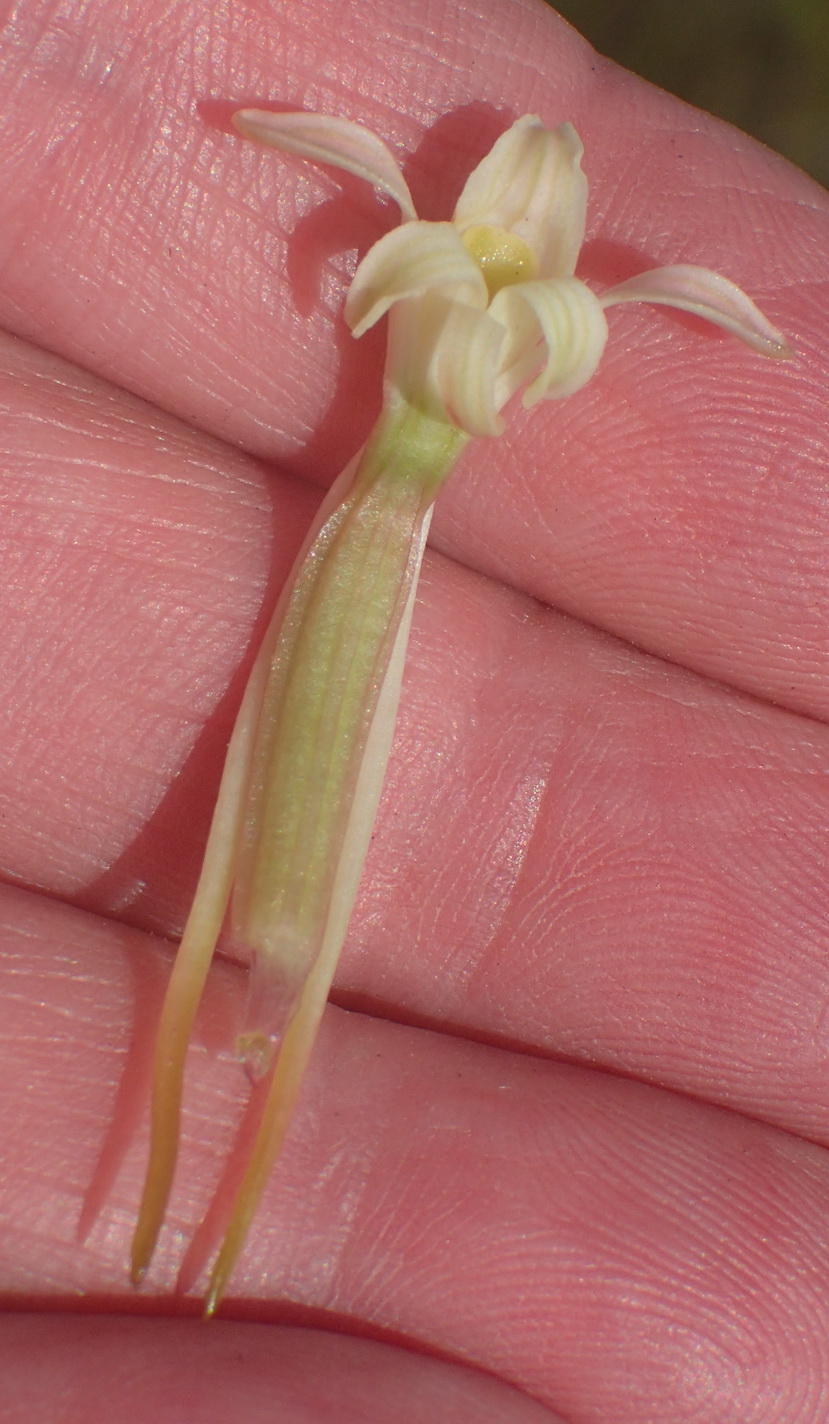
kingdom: Plantae
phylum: Tracheophyta
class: Liliopsida
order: Asparagales
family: Orchidaceae
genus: Satyrium
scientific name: Satyrium stenopetalum
